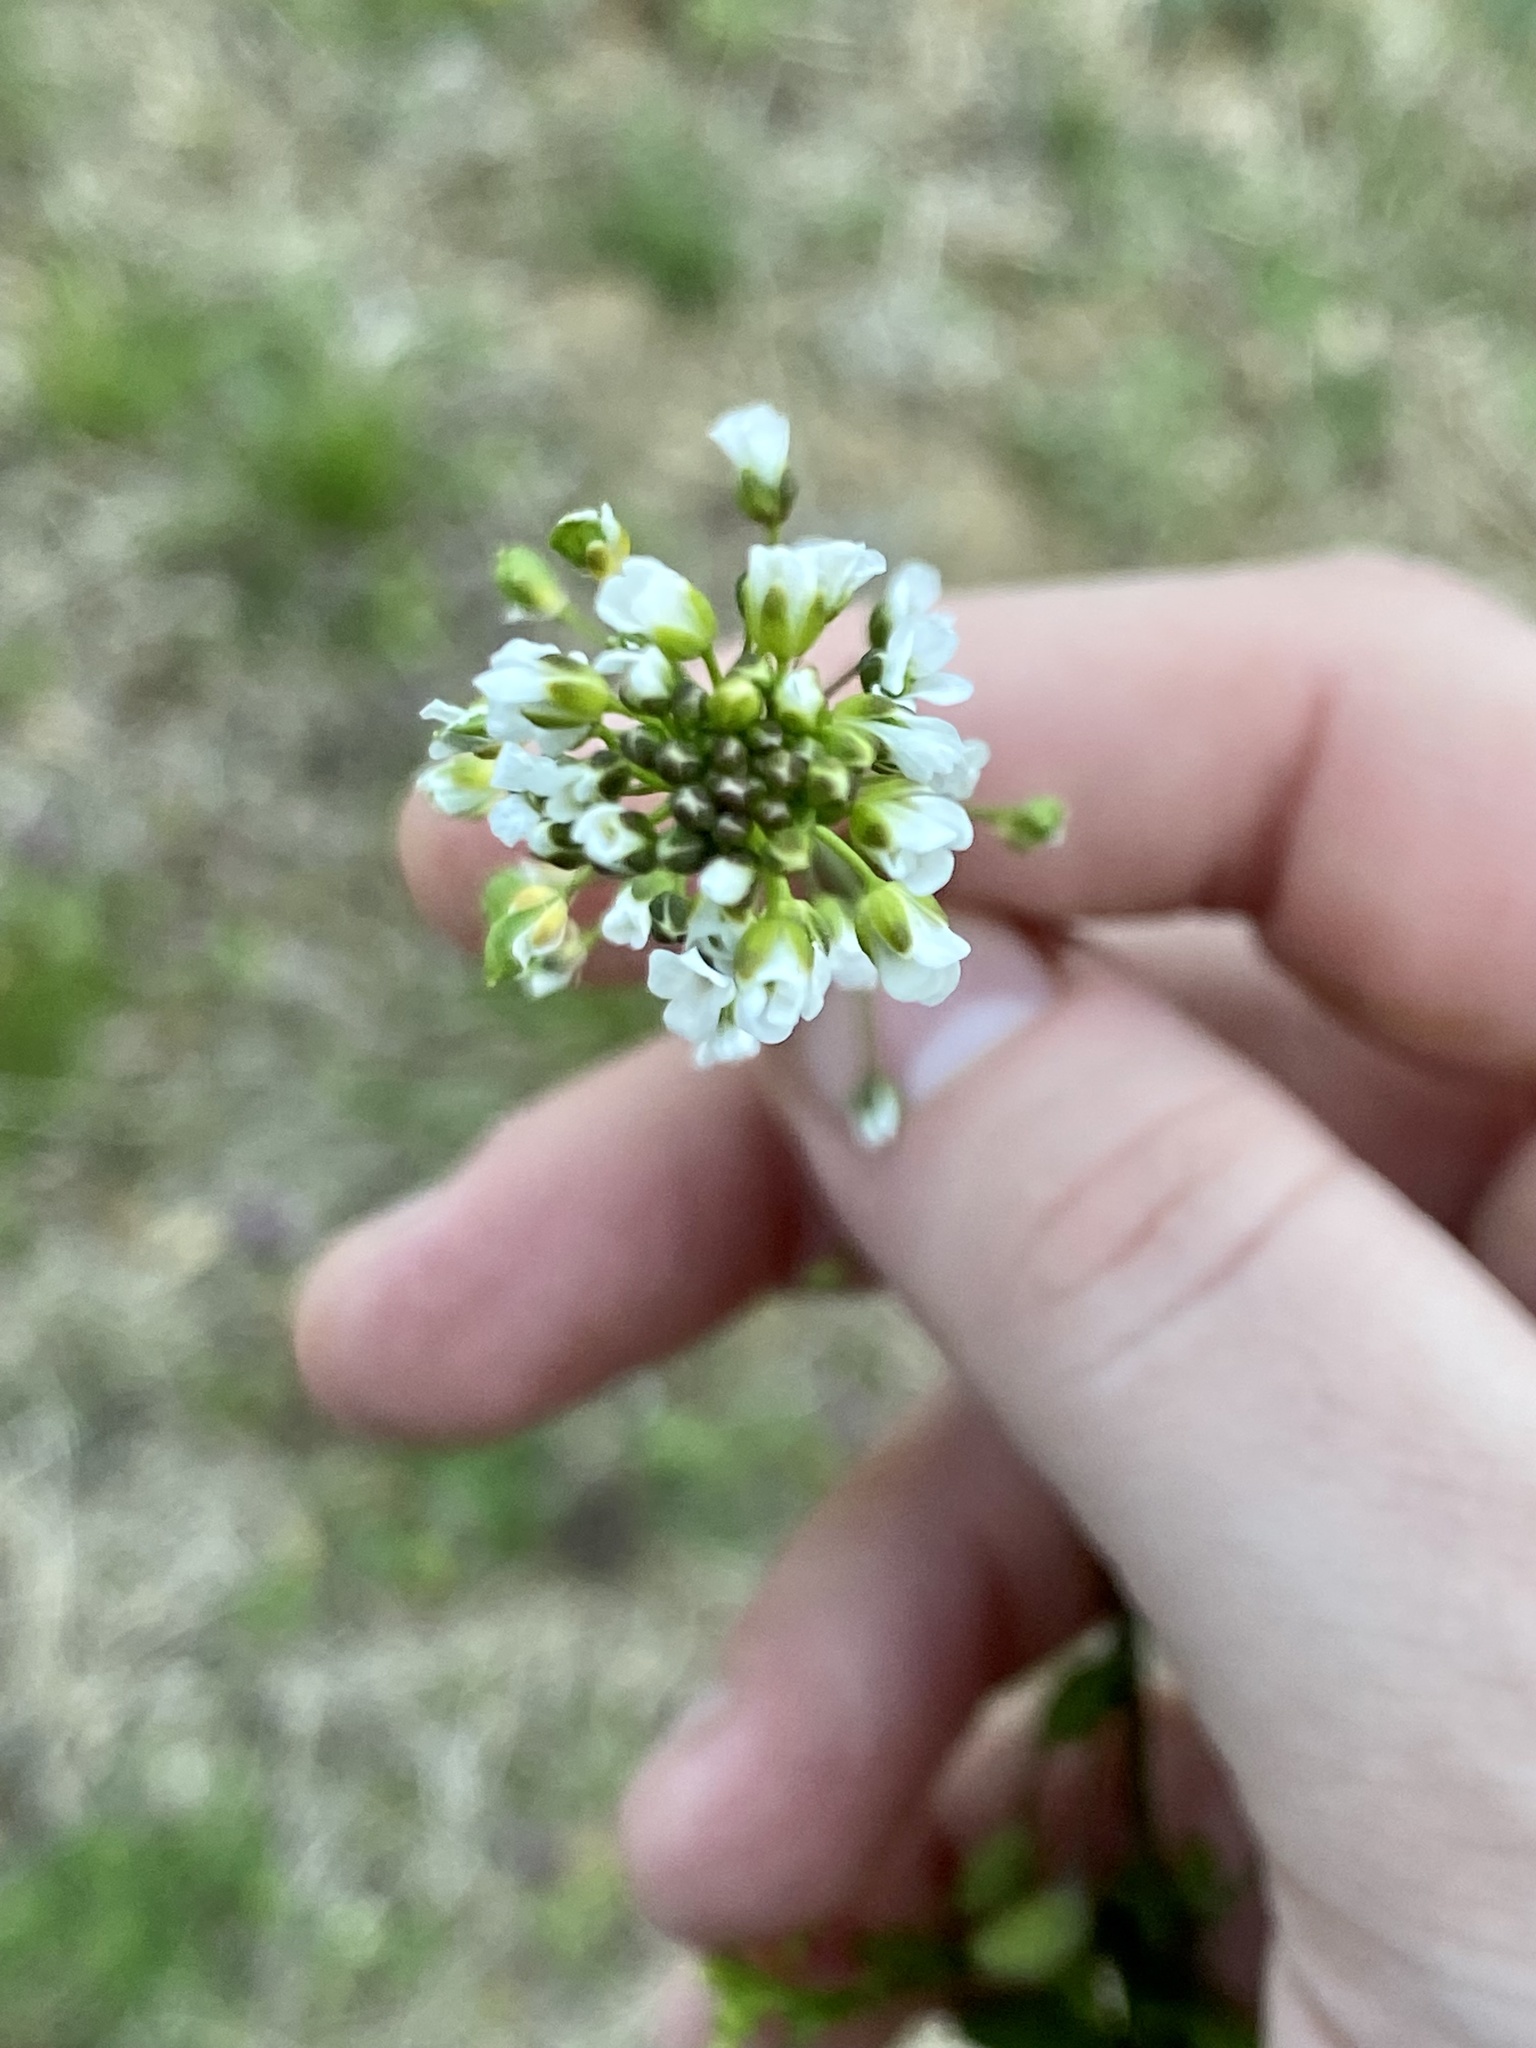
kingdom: Plantae
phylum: Tracheophyta
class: Magnoliopsida
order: Brassicales
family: Brassicaceae
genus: Mummenhoffia
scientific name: Mummenhoffia alliacea
